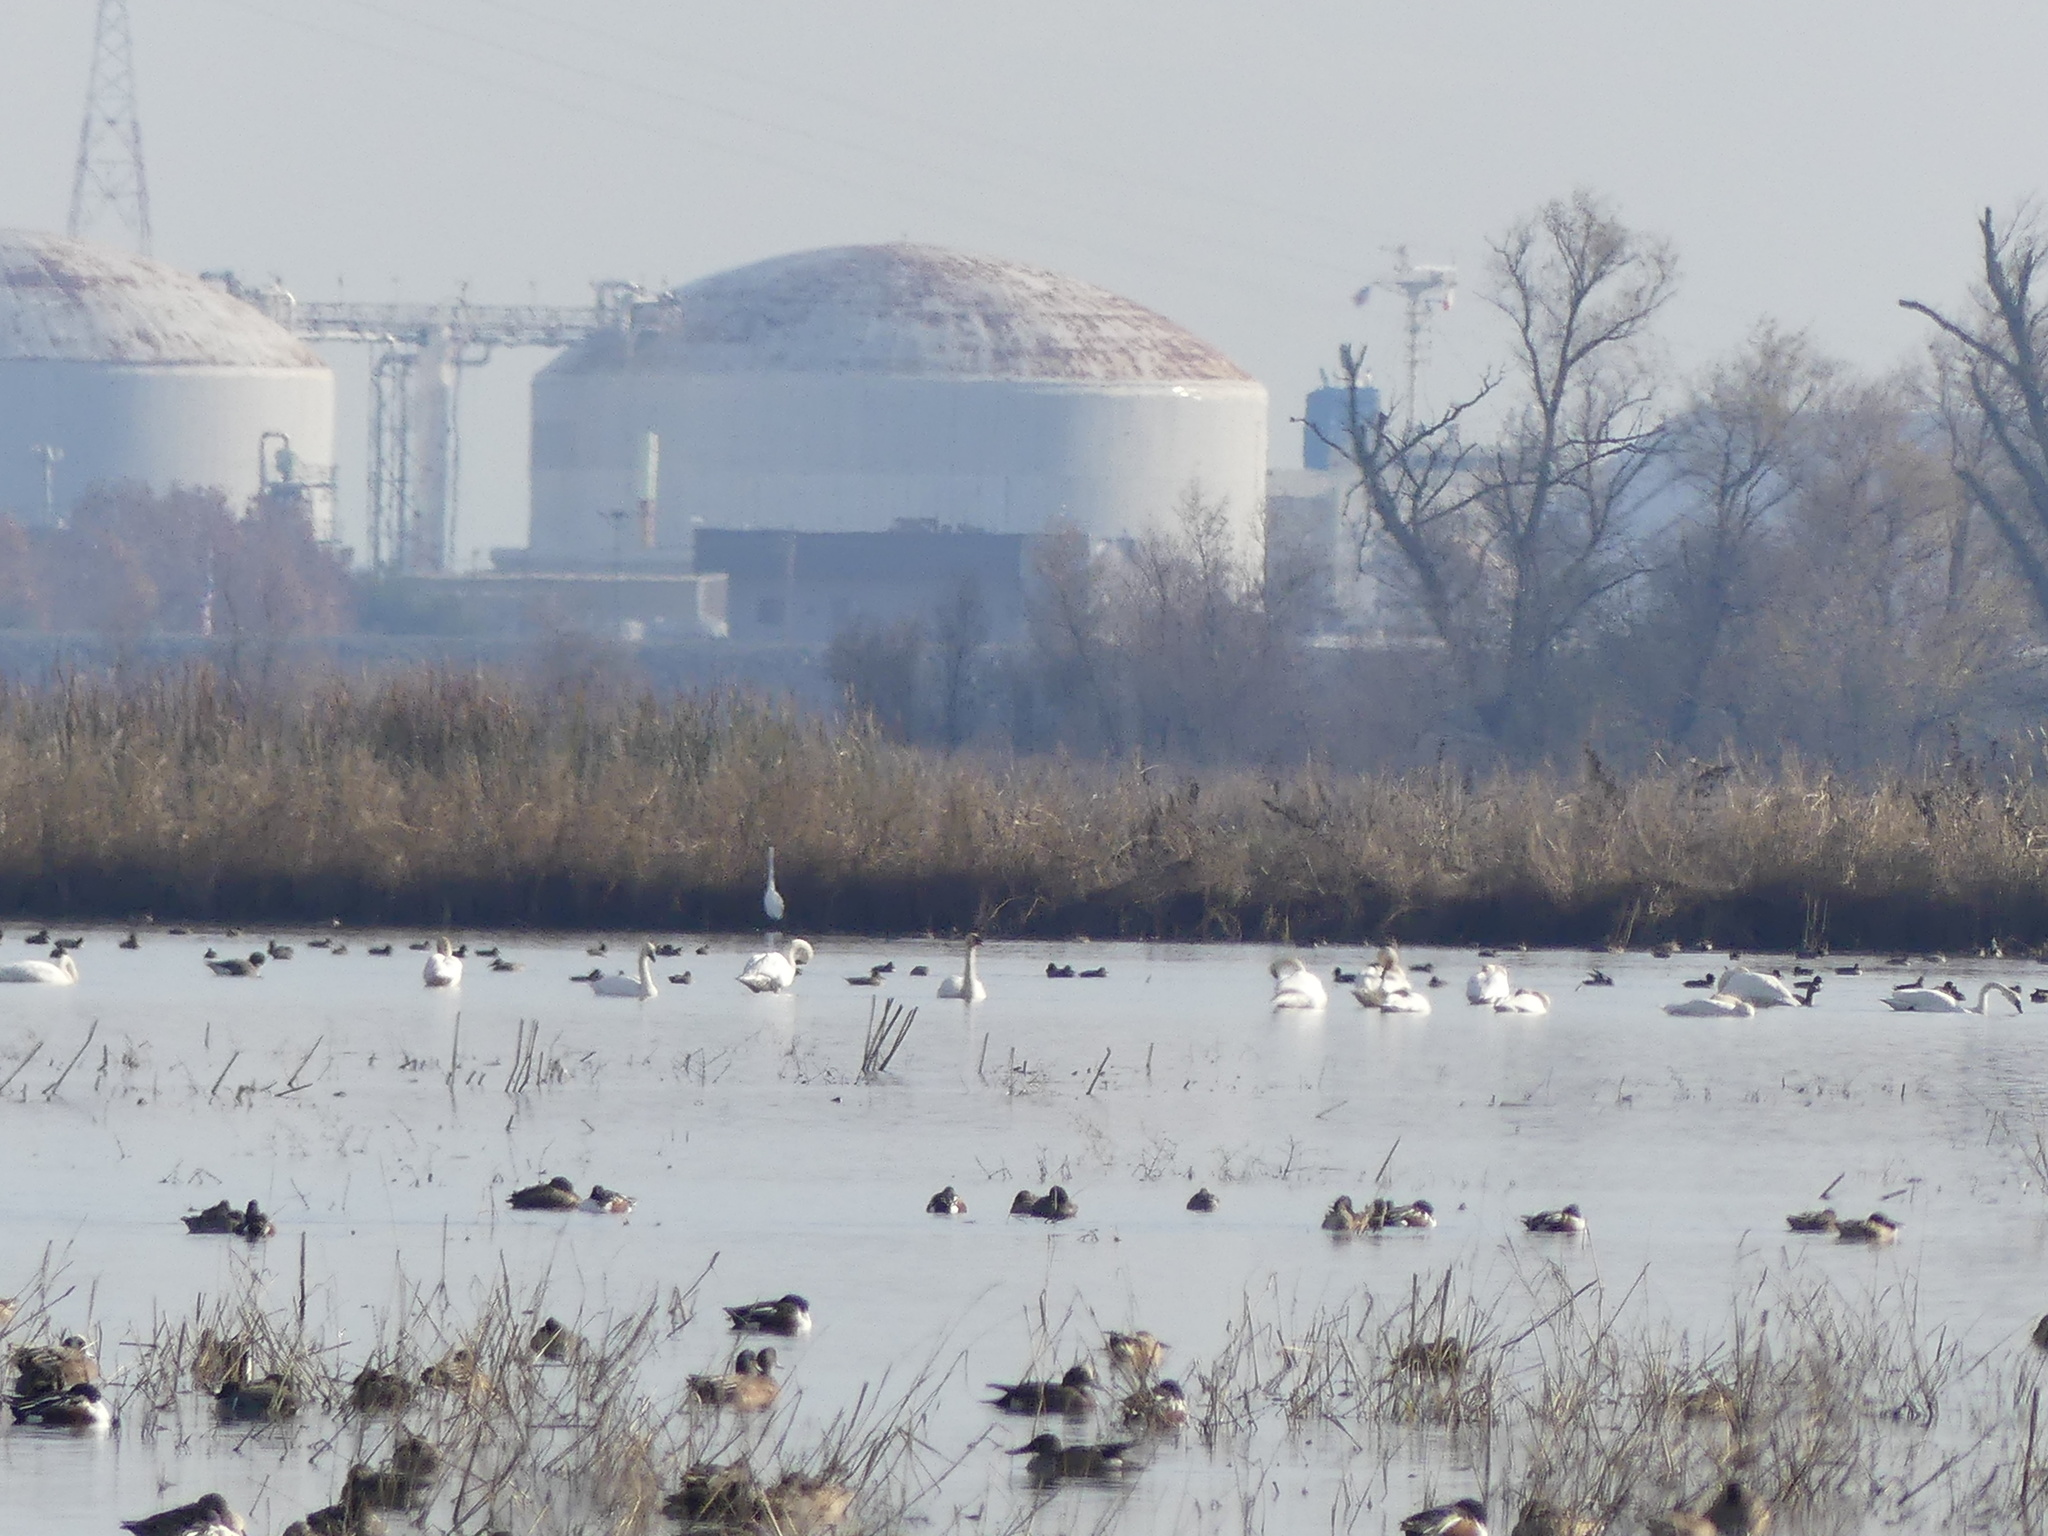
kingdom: Animalia
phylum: Chordata
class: Aves
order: Anseriformes
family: Anatidae
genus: Cygnus
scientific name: Cygnus columbianus
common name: Tundra swan
